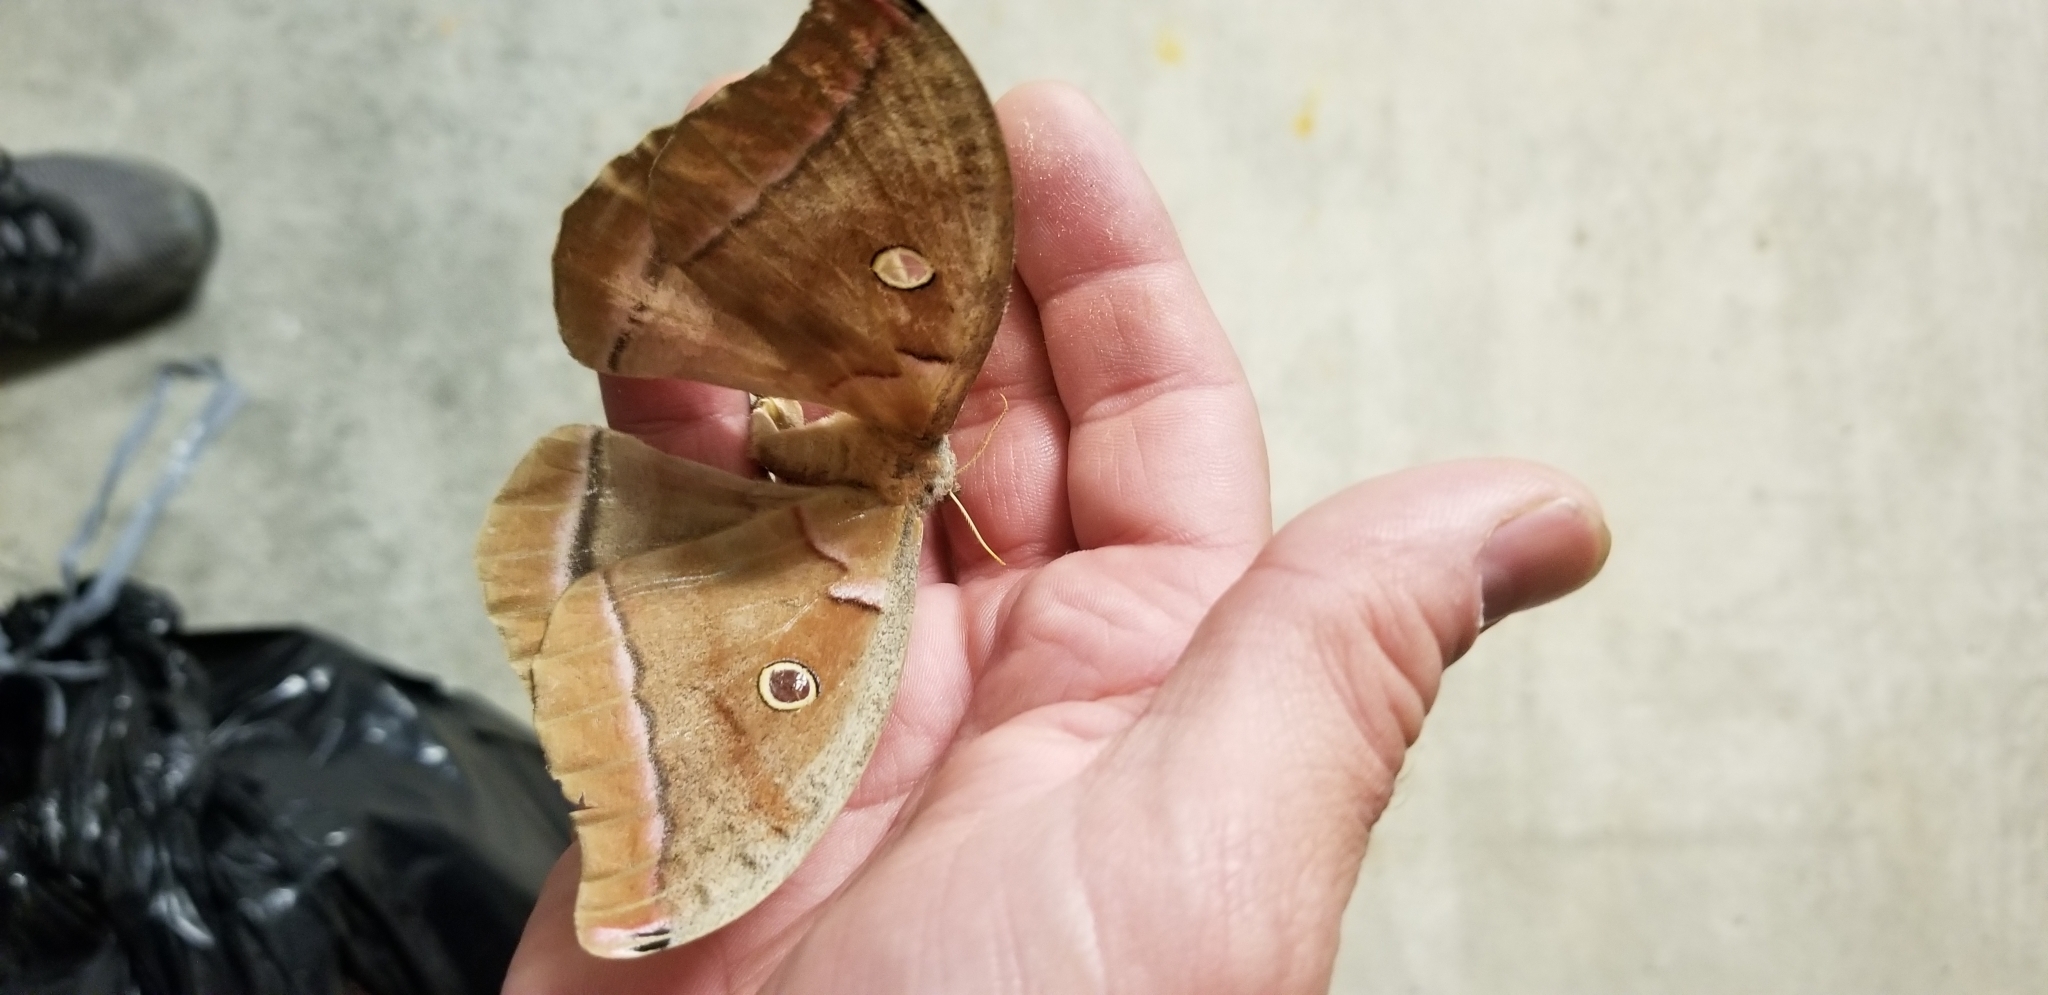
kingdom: Animalia
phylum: Arthropoda
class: Insecta
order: Lepidoptera
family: Saturniidae
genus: Antheraea
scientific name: Antheraea polyphemus
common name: Polyphemus moth
